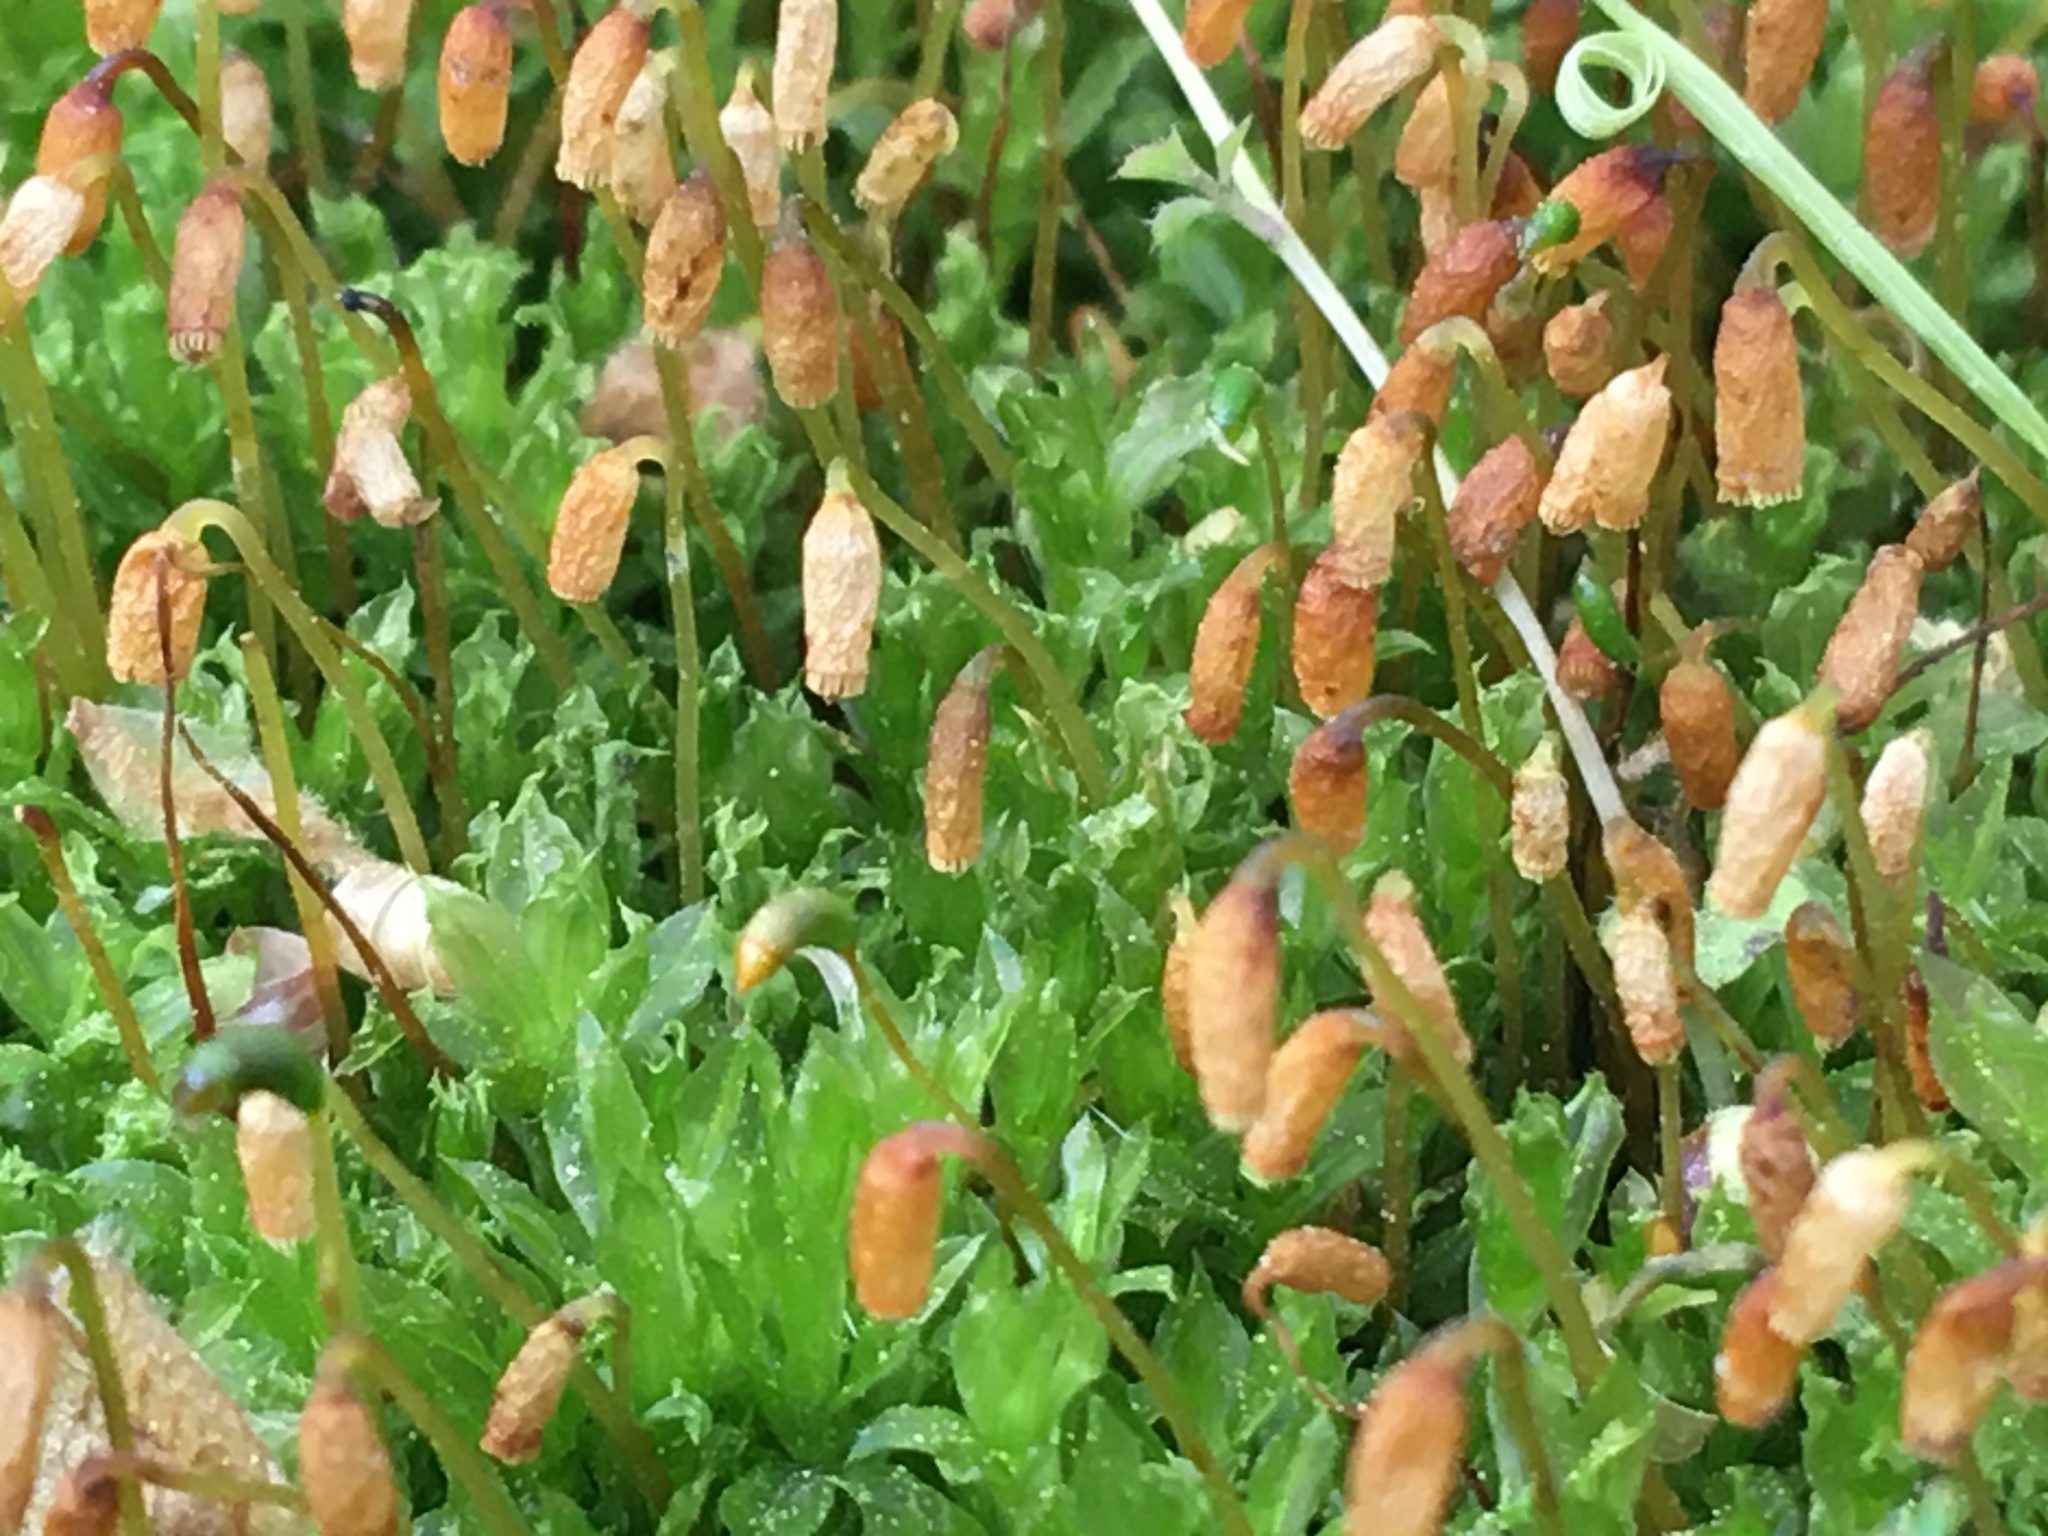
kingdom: Plantae
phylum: Bryophyta
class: Bryopsida
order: Bryales
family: Mniaceae
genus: Plagiomnium
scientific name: Plagiomnium cuspidatum
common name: Woodsy leafy moss
